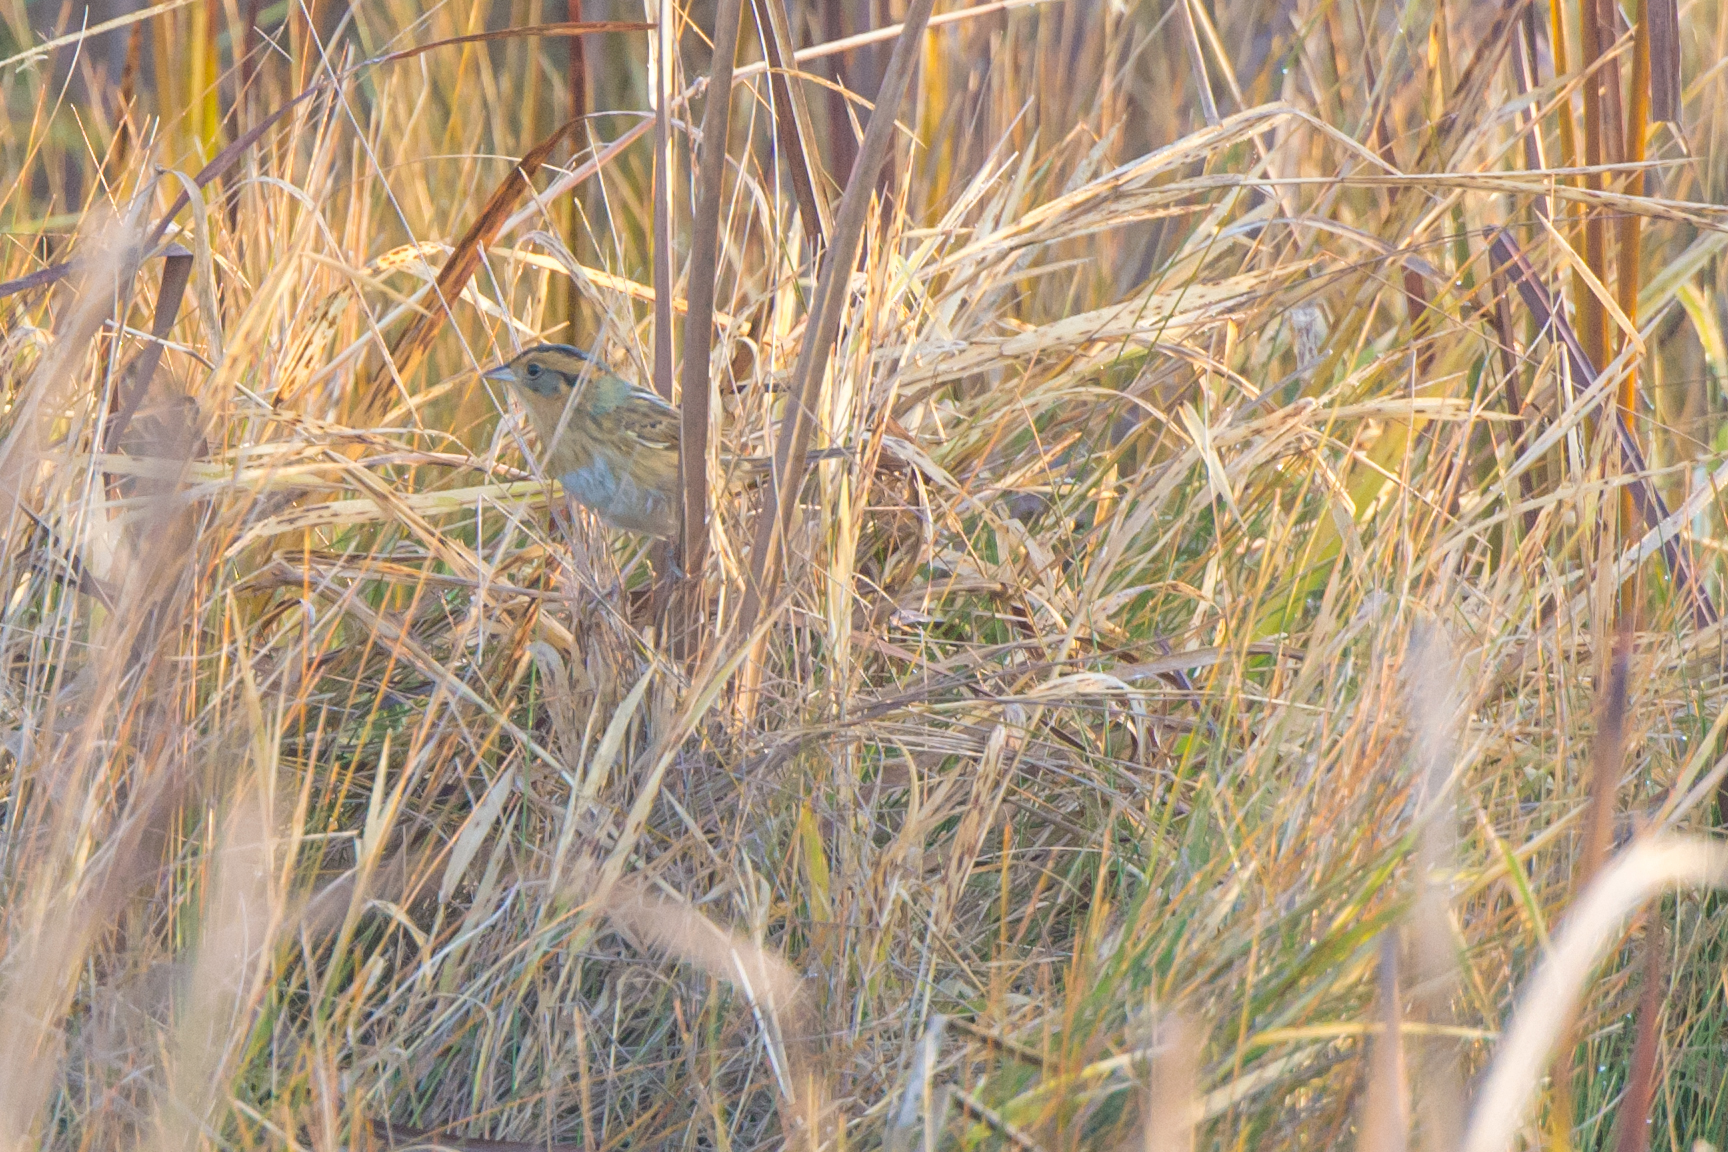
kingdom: Animalia
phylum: Chordata
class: Aves
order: Passeriformes
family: Passerellidae
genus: Ammospiza
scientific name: Ammospiza nelsoni
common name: Nelson's sparrow
